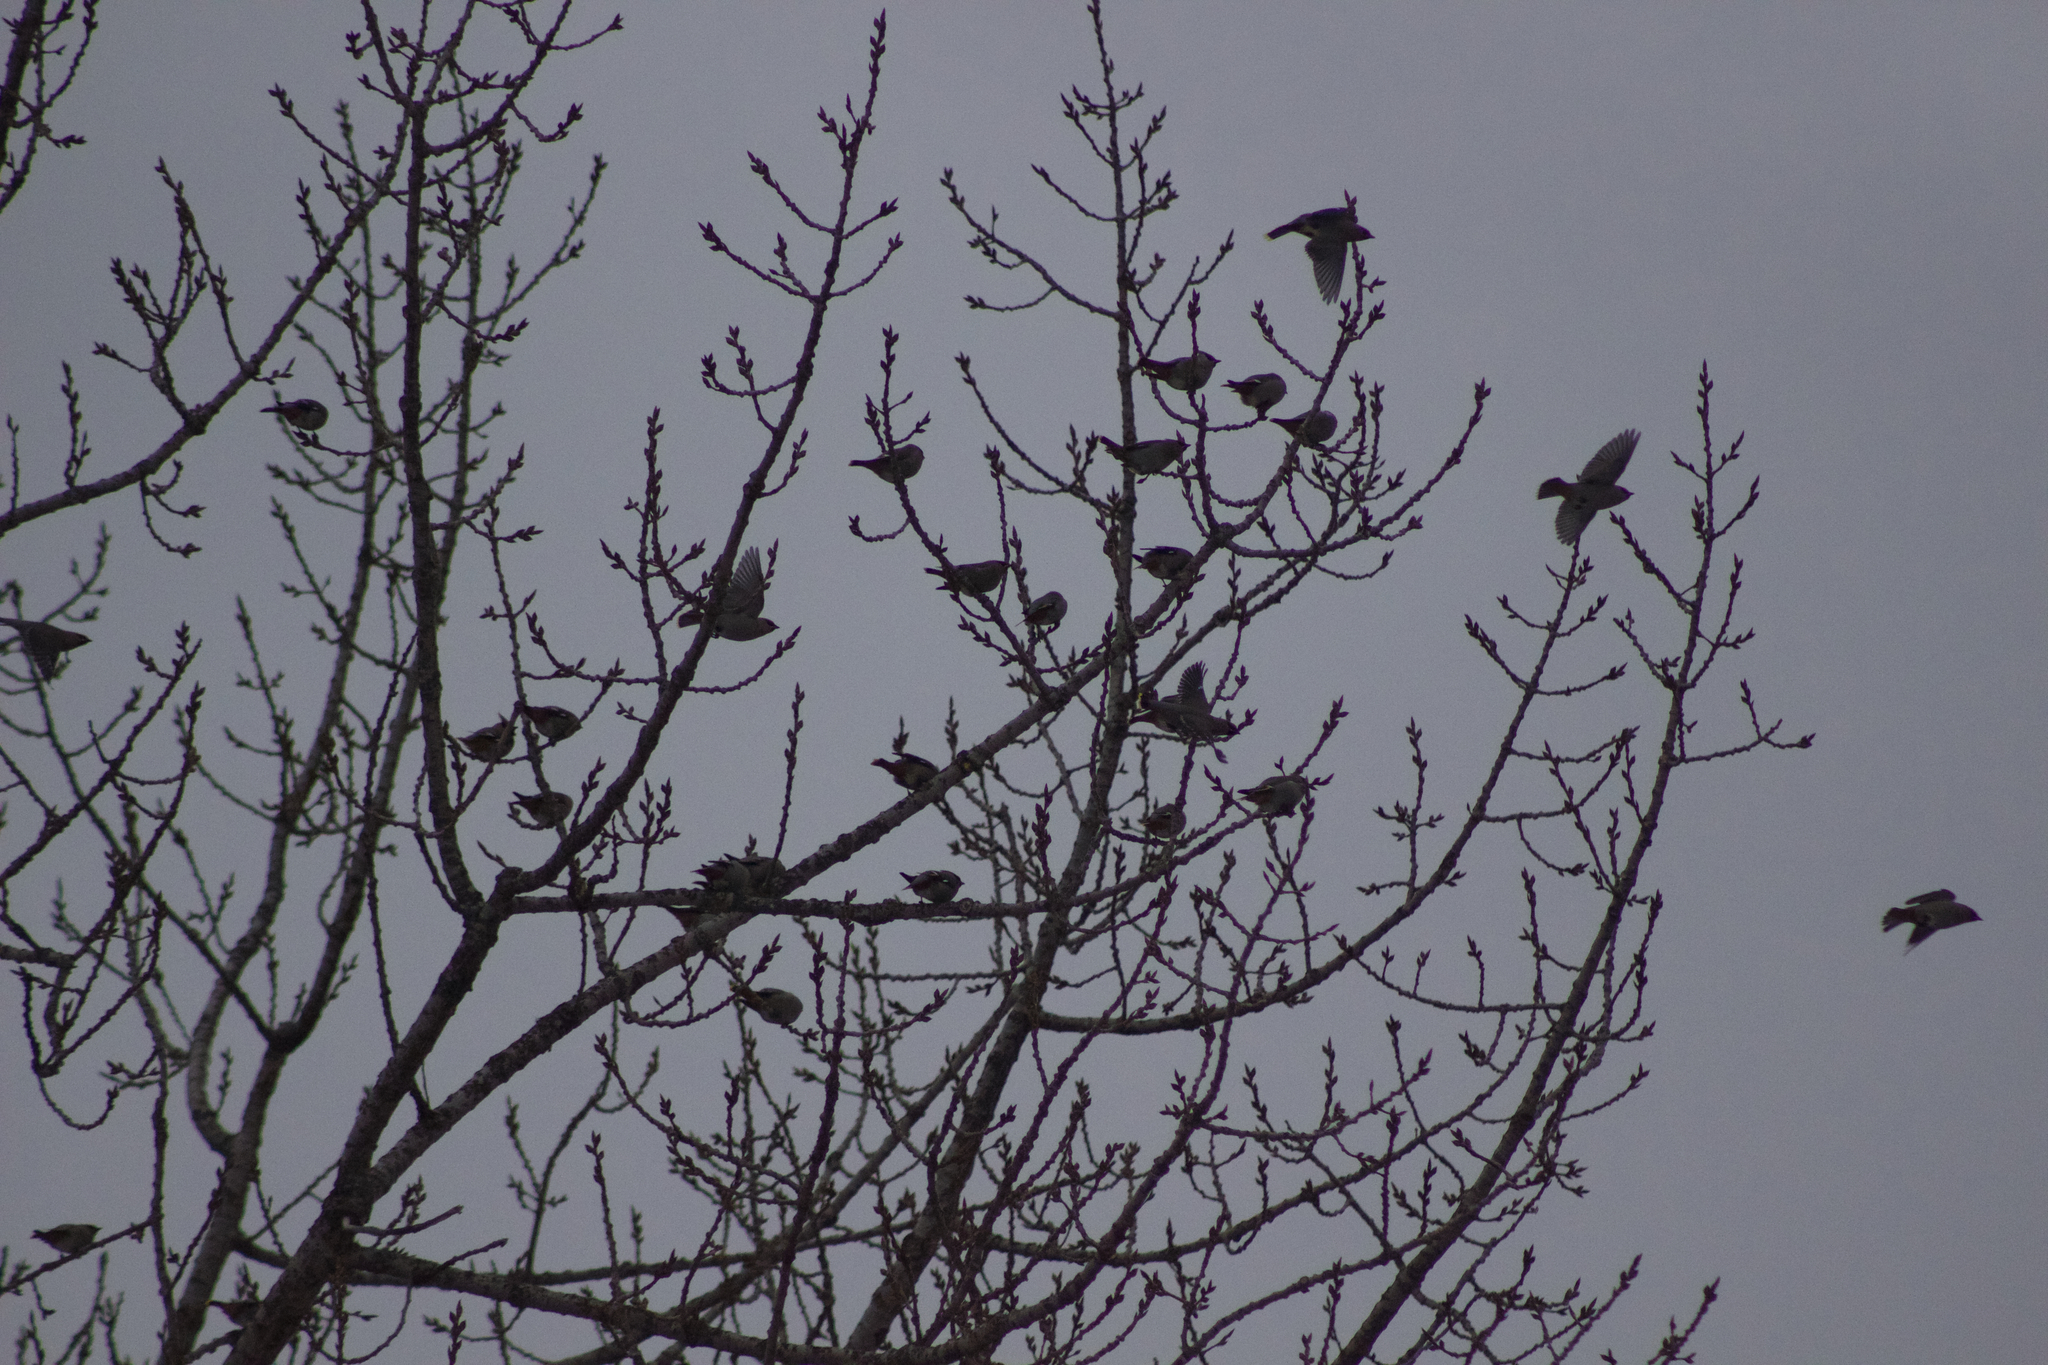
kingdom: Animalia
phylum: Chordata
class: Aves
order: Passeriformes
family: Bombycillidae
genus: Bombycilla
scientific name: Bombycilla garrulus
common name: Bohemian waxwing
